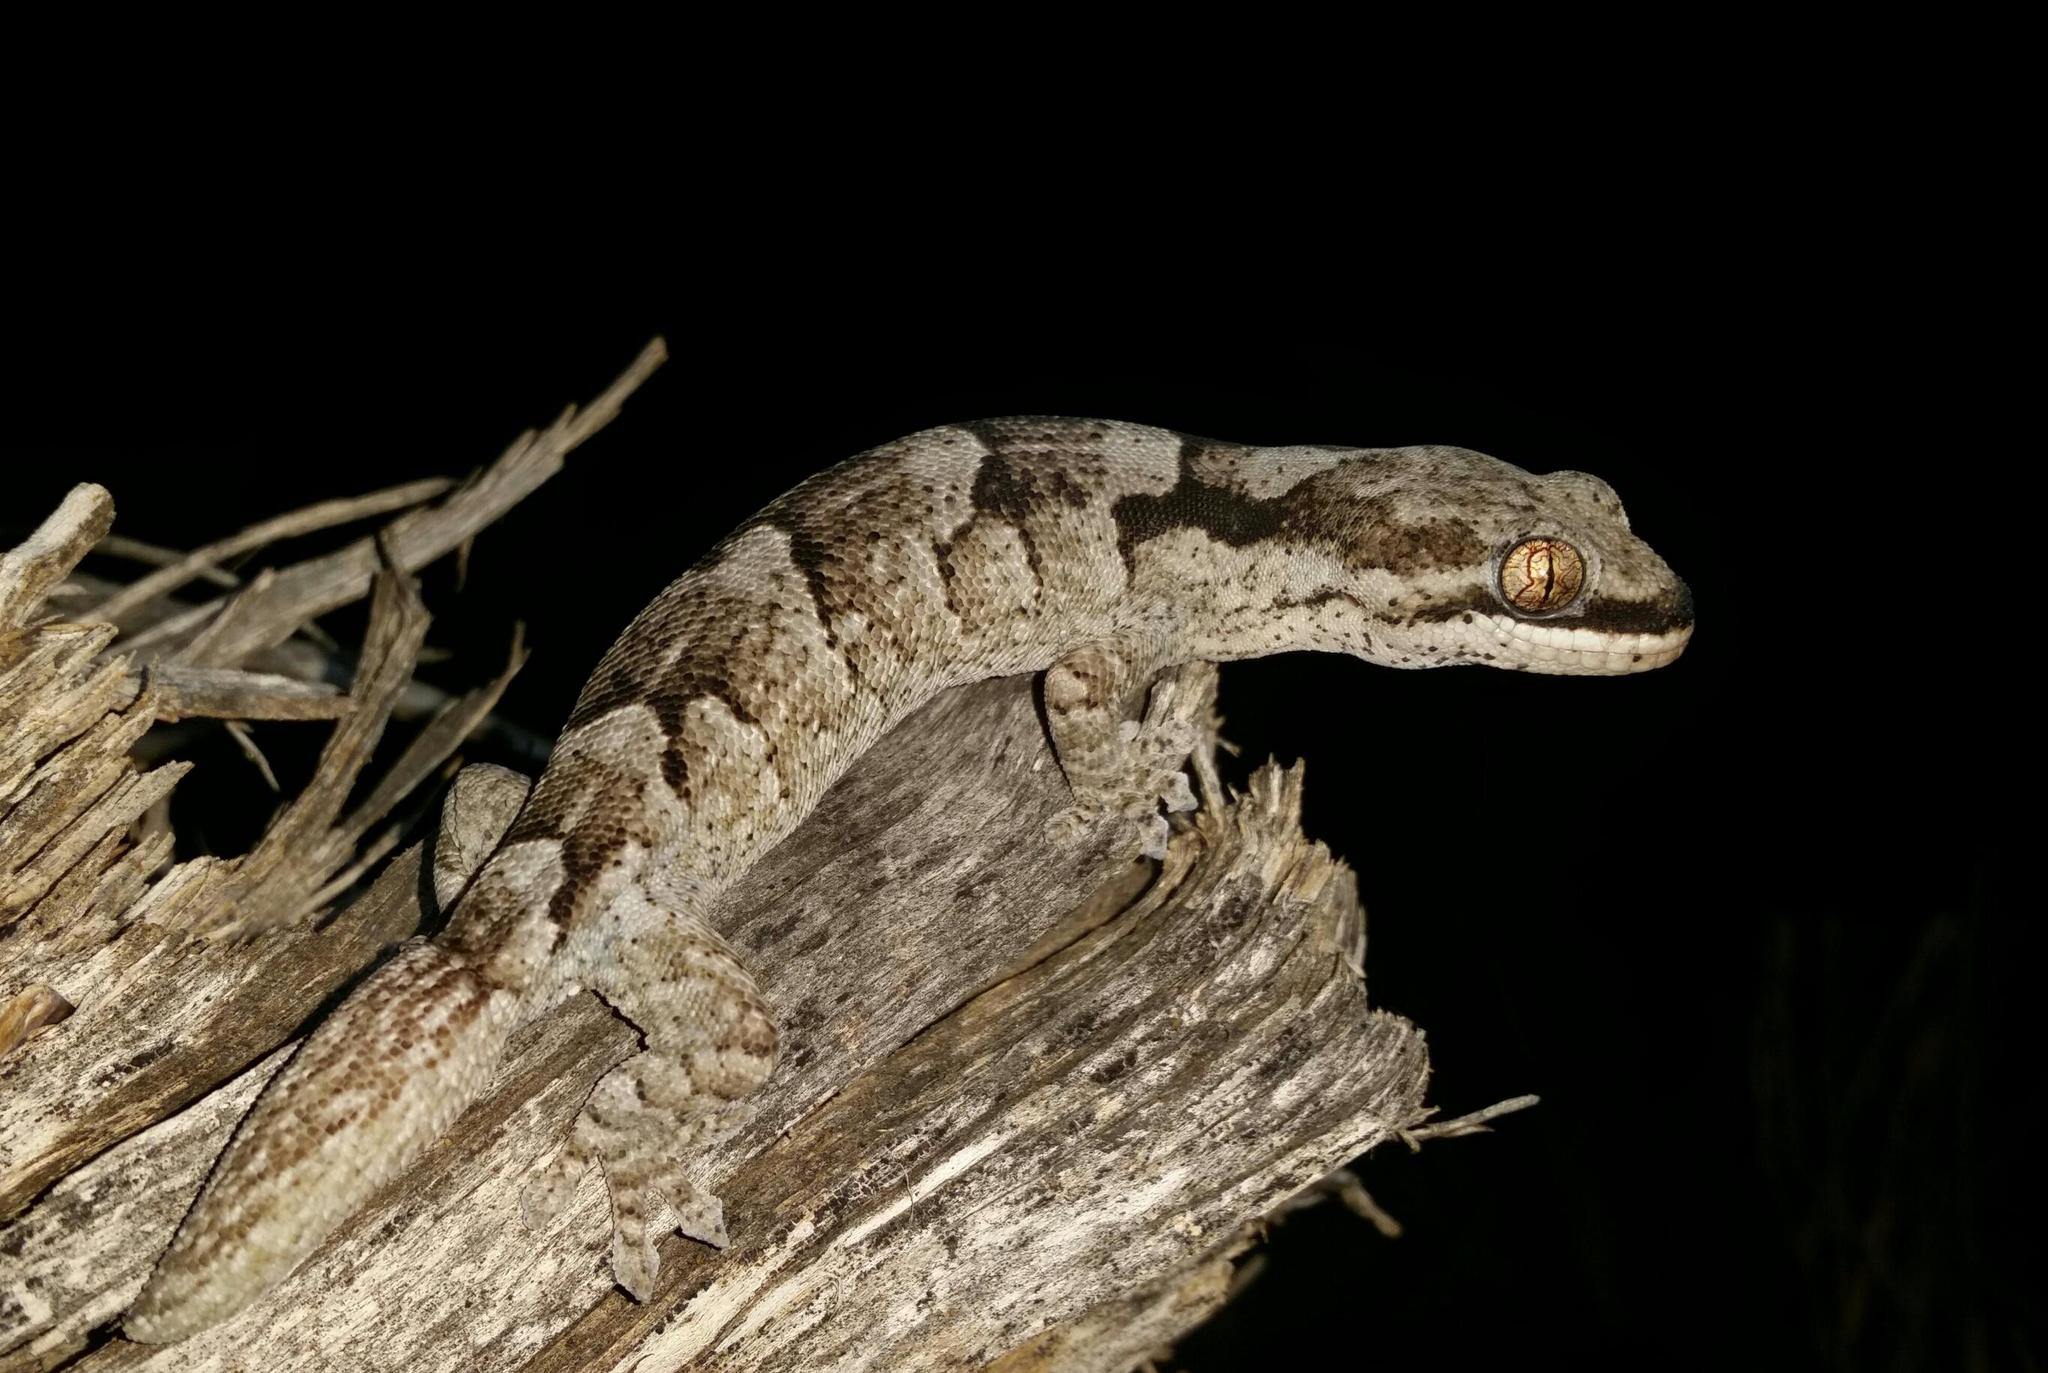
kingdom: Animalia
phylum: Chordata
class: Squamata
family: Gekkonidae
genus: Homopholis
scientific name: Homopholis mulleri
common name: Muller's velvet gecko
